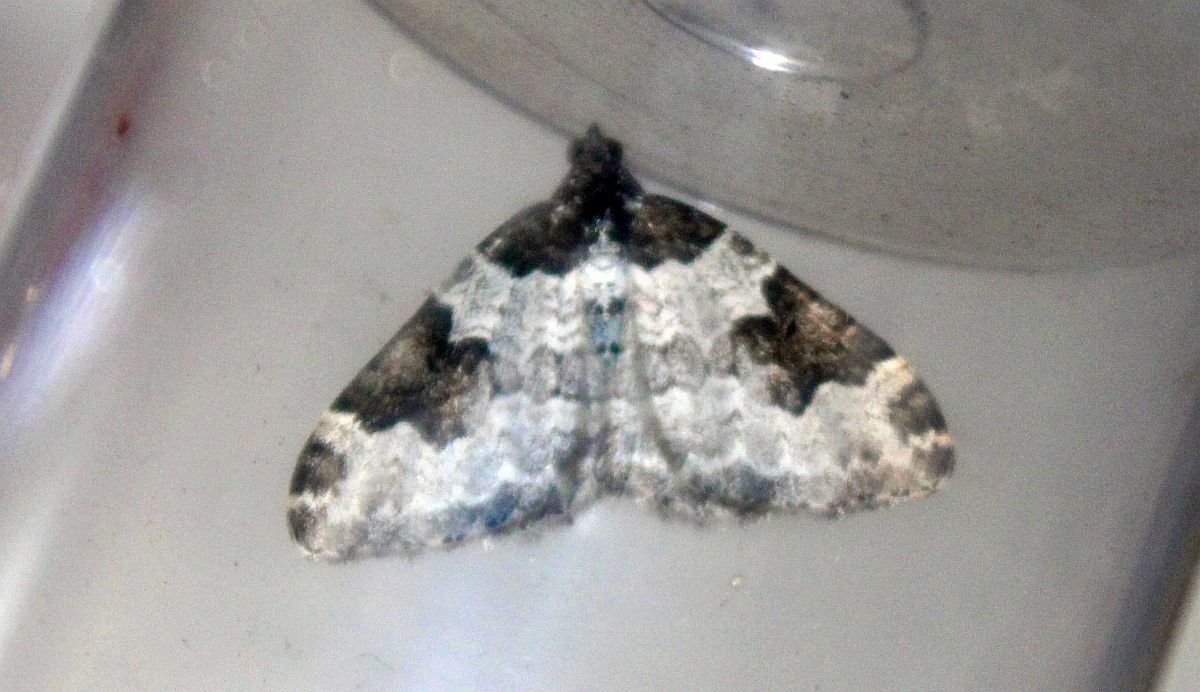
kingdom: Animalia
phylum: Arthropoda
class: Insecta
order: Lepidoptera
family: Geometridae
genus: Xanthorhoe
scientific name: Xanthorhoe fluctuata
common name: Garden carpet
